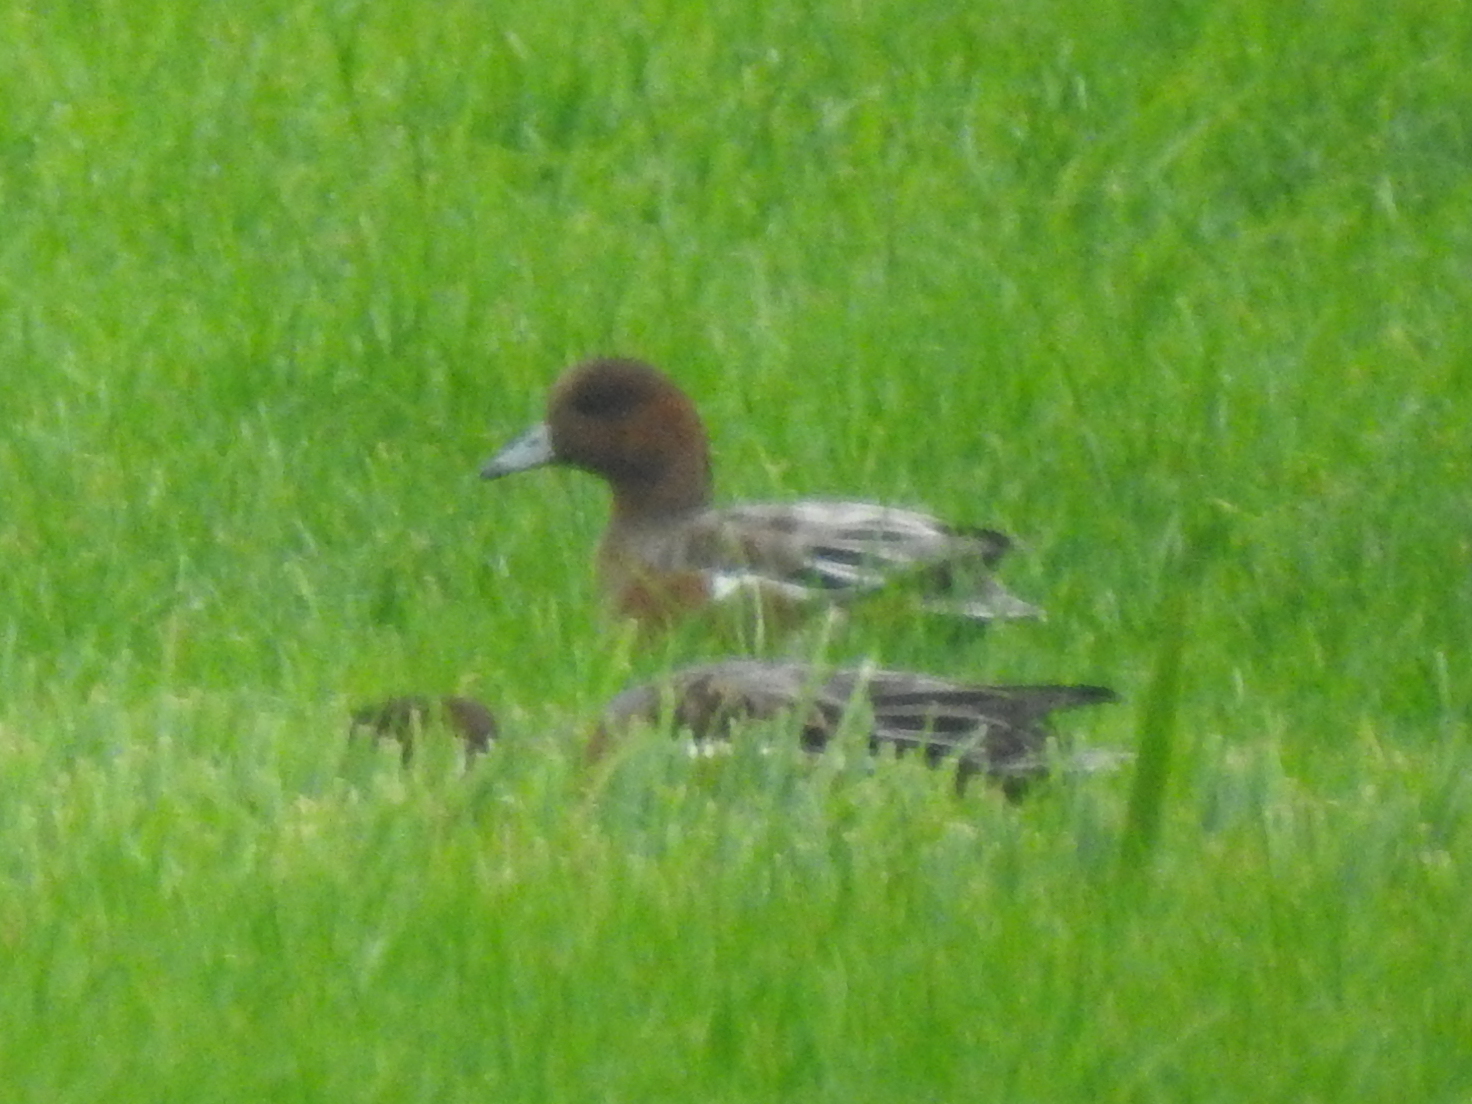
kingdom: Animalia
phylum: Chordata
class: Aves
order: Anseriformes
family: Anatidae
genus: Mareca
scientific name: Mareca penelope
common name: Eurasian wigeon
